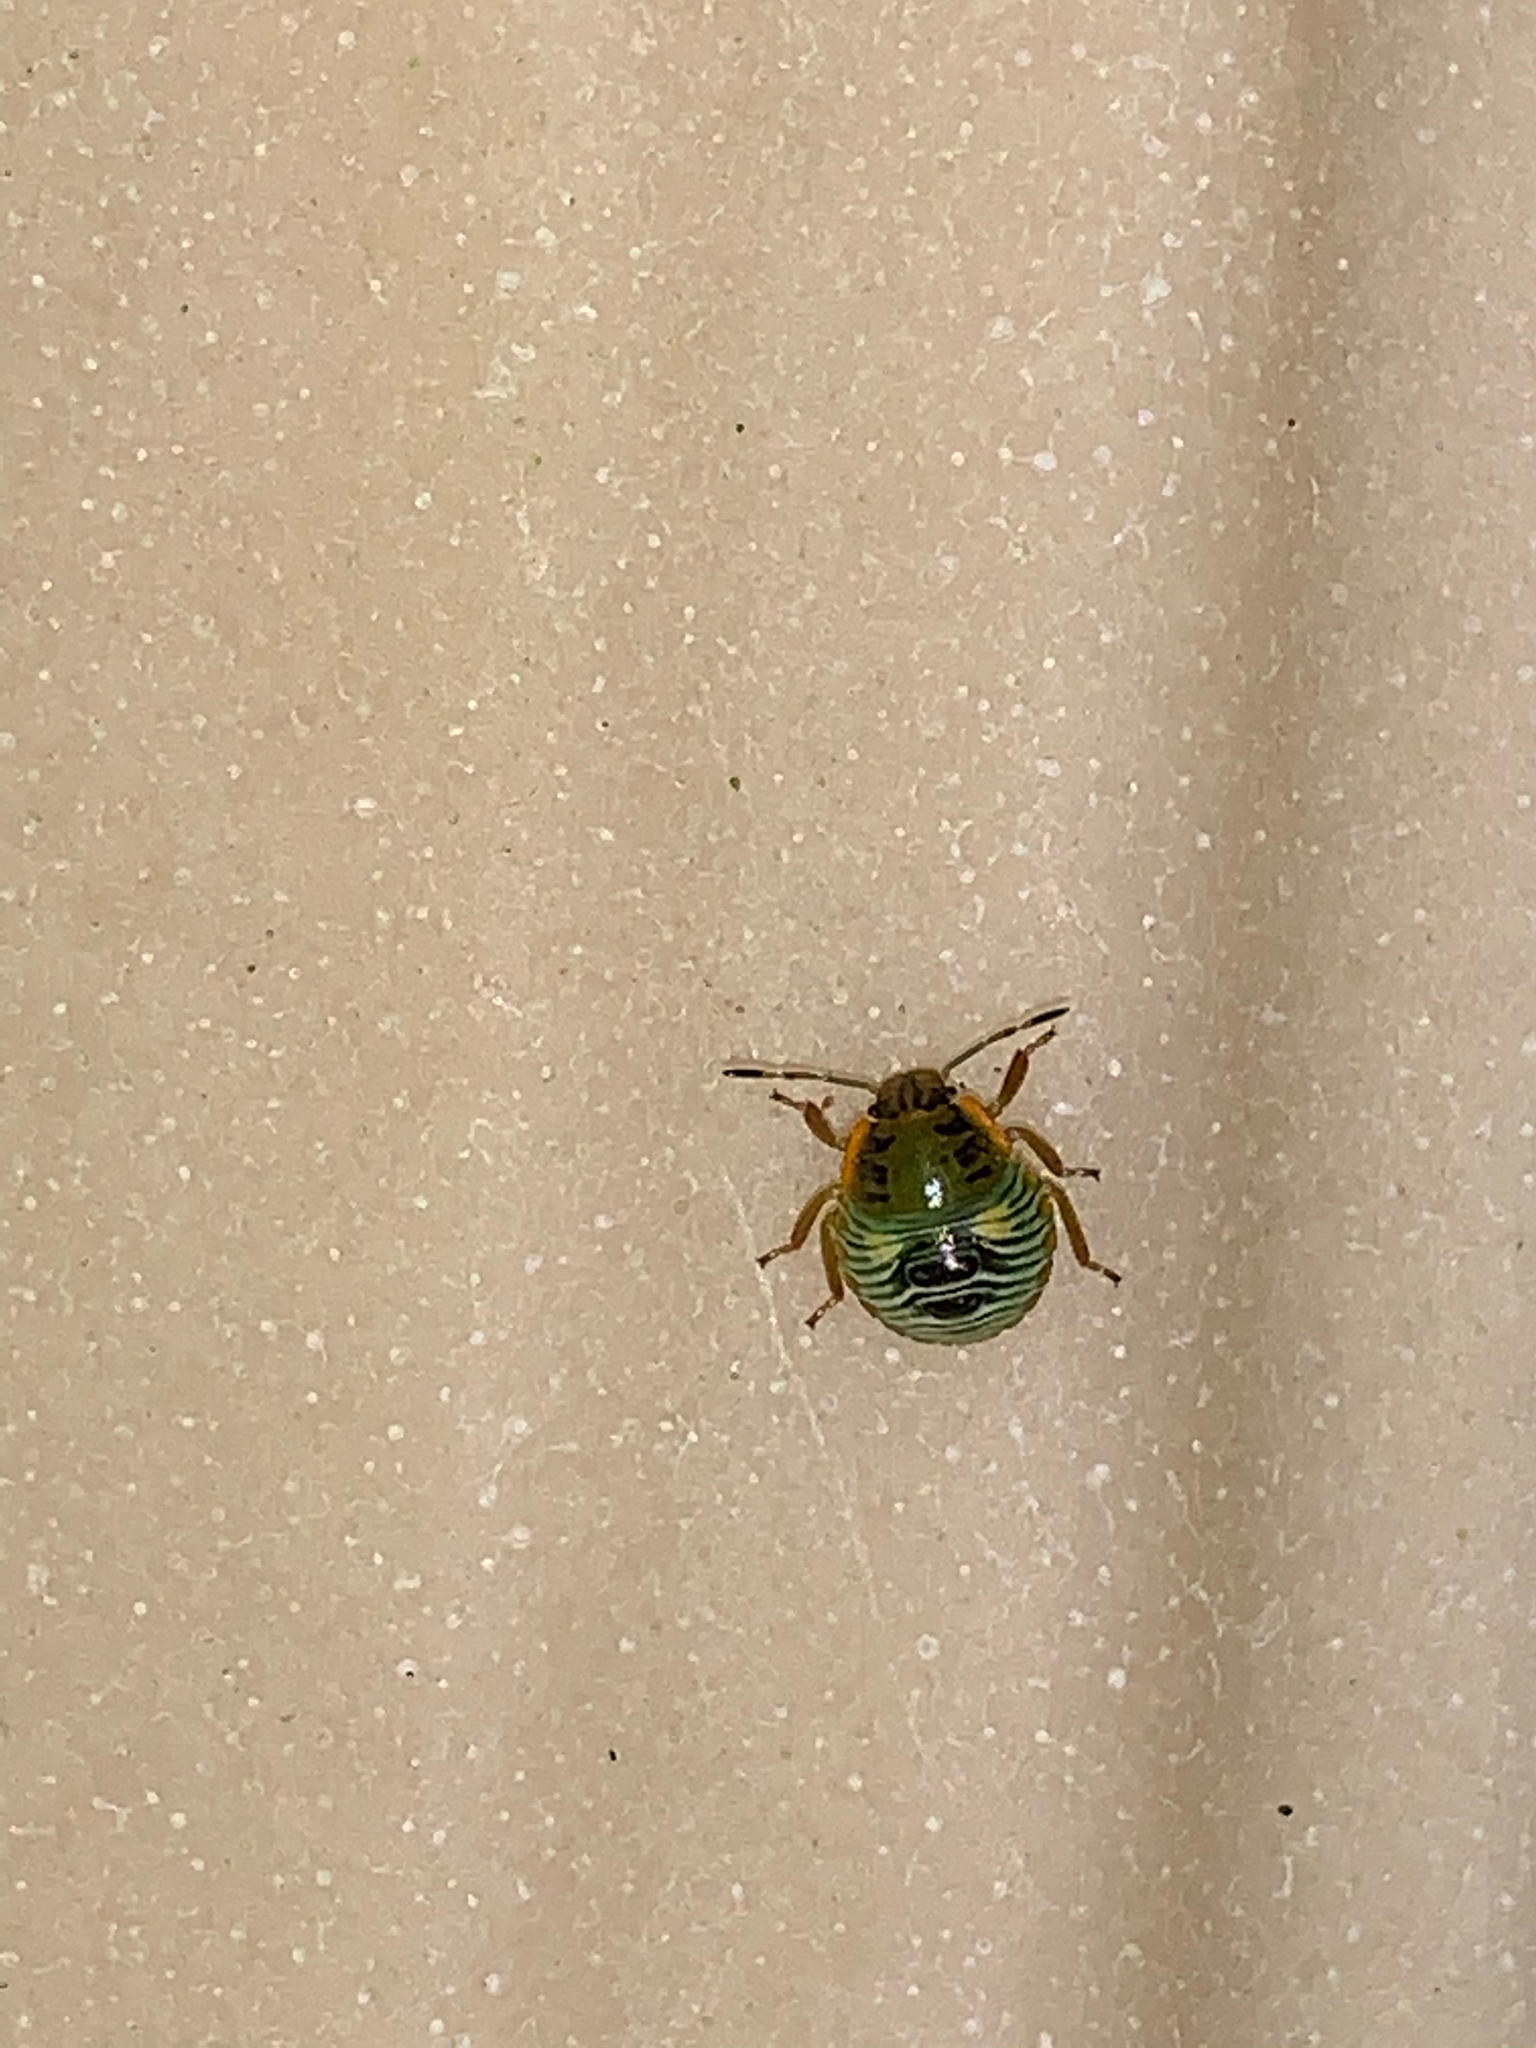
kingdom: Animalia
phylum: Arthropoda
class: Insecta
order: Hemiptera
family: Pentatomidae
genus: Chinavia
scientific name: Chinavia hilaris
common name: Green stink bug
